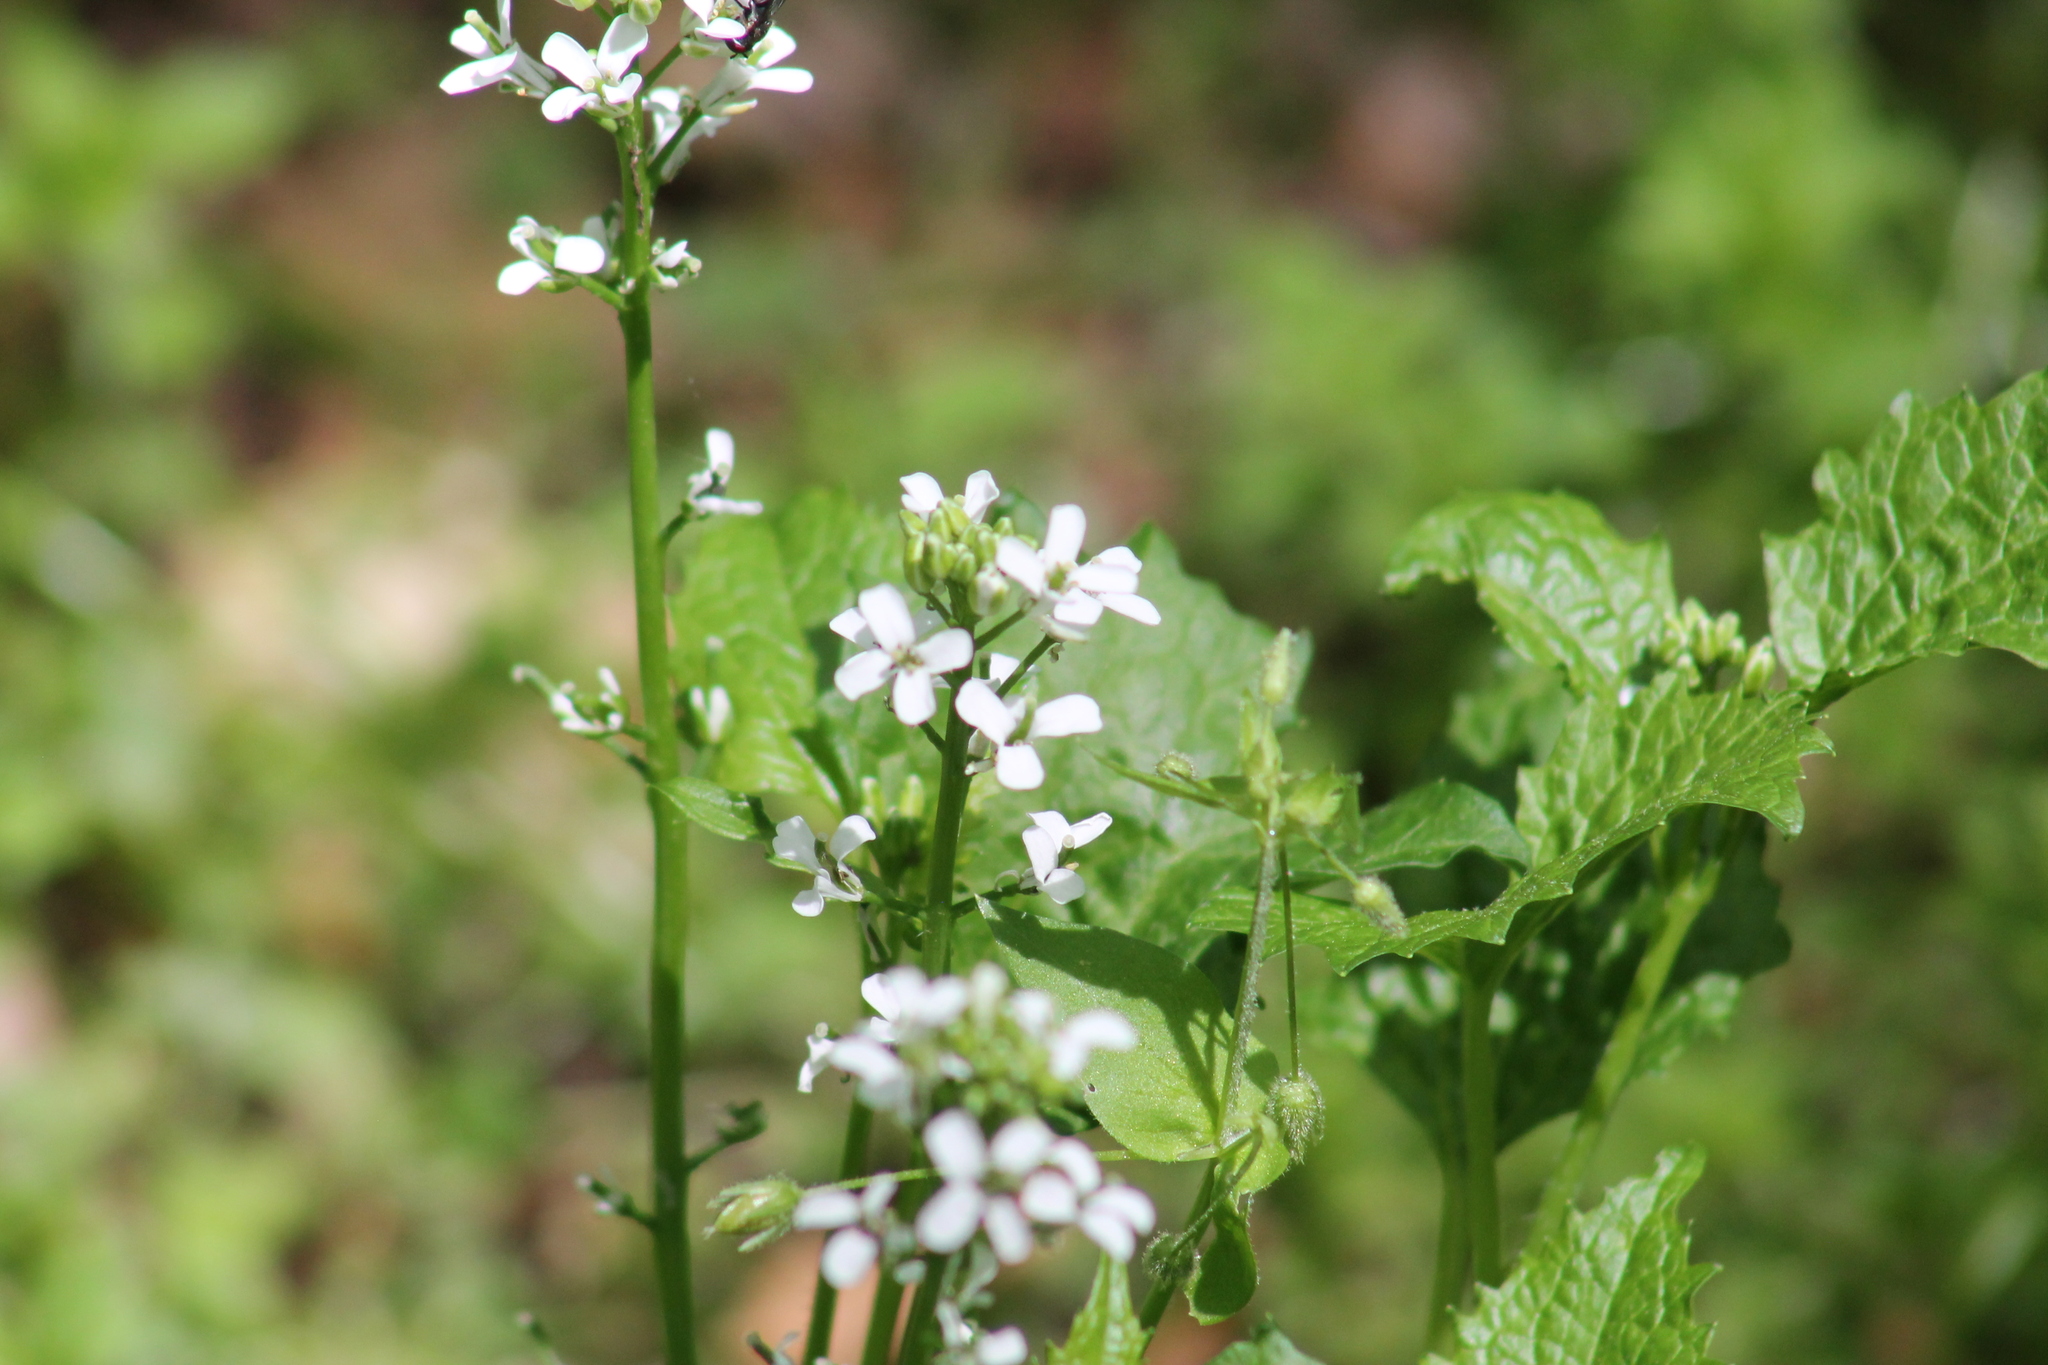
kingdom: Plantae
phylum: Tracheophyta
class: Magnoliopsida
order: Brassicales
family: Brassicaceae
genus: Alliaria
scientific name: Alliaria petiolata
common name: Garlic mustard
